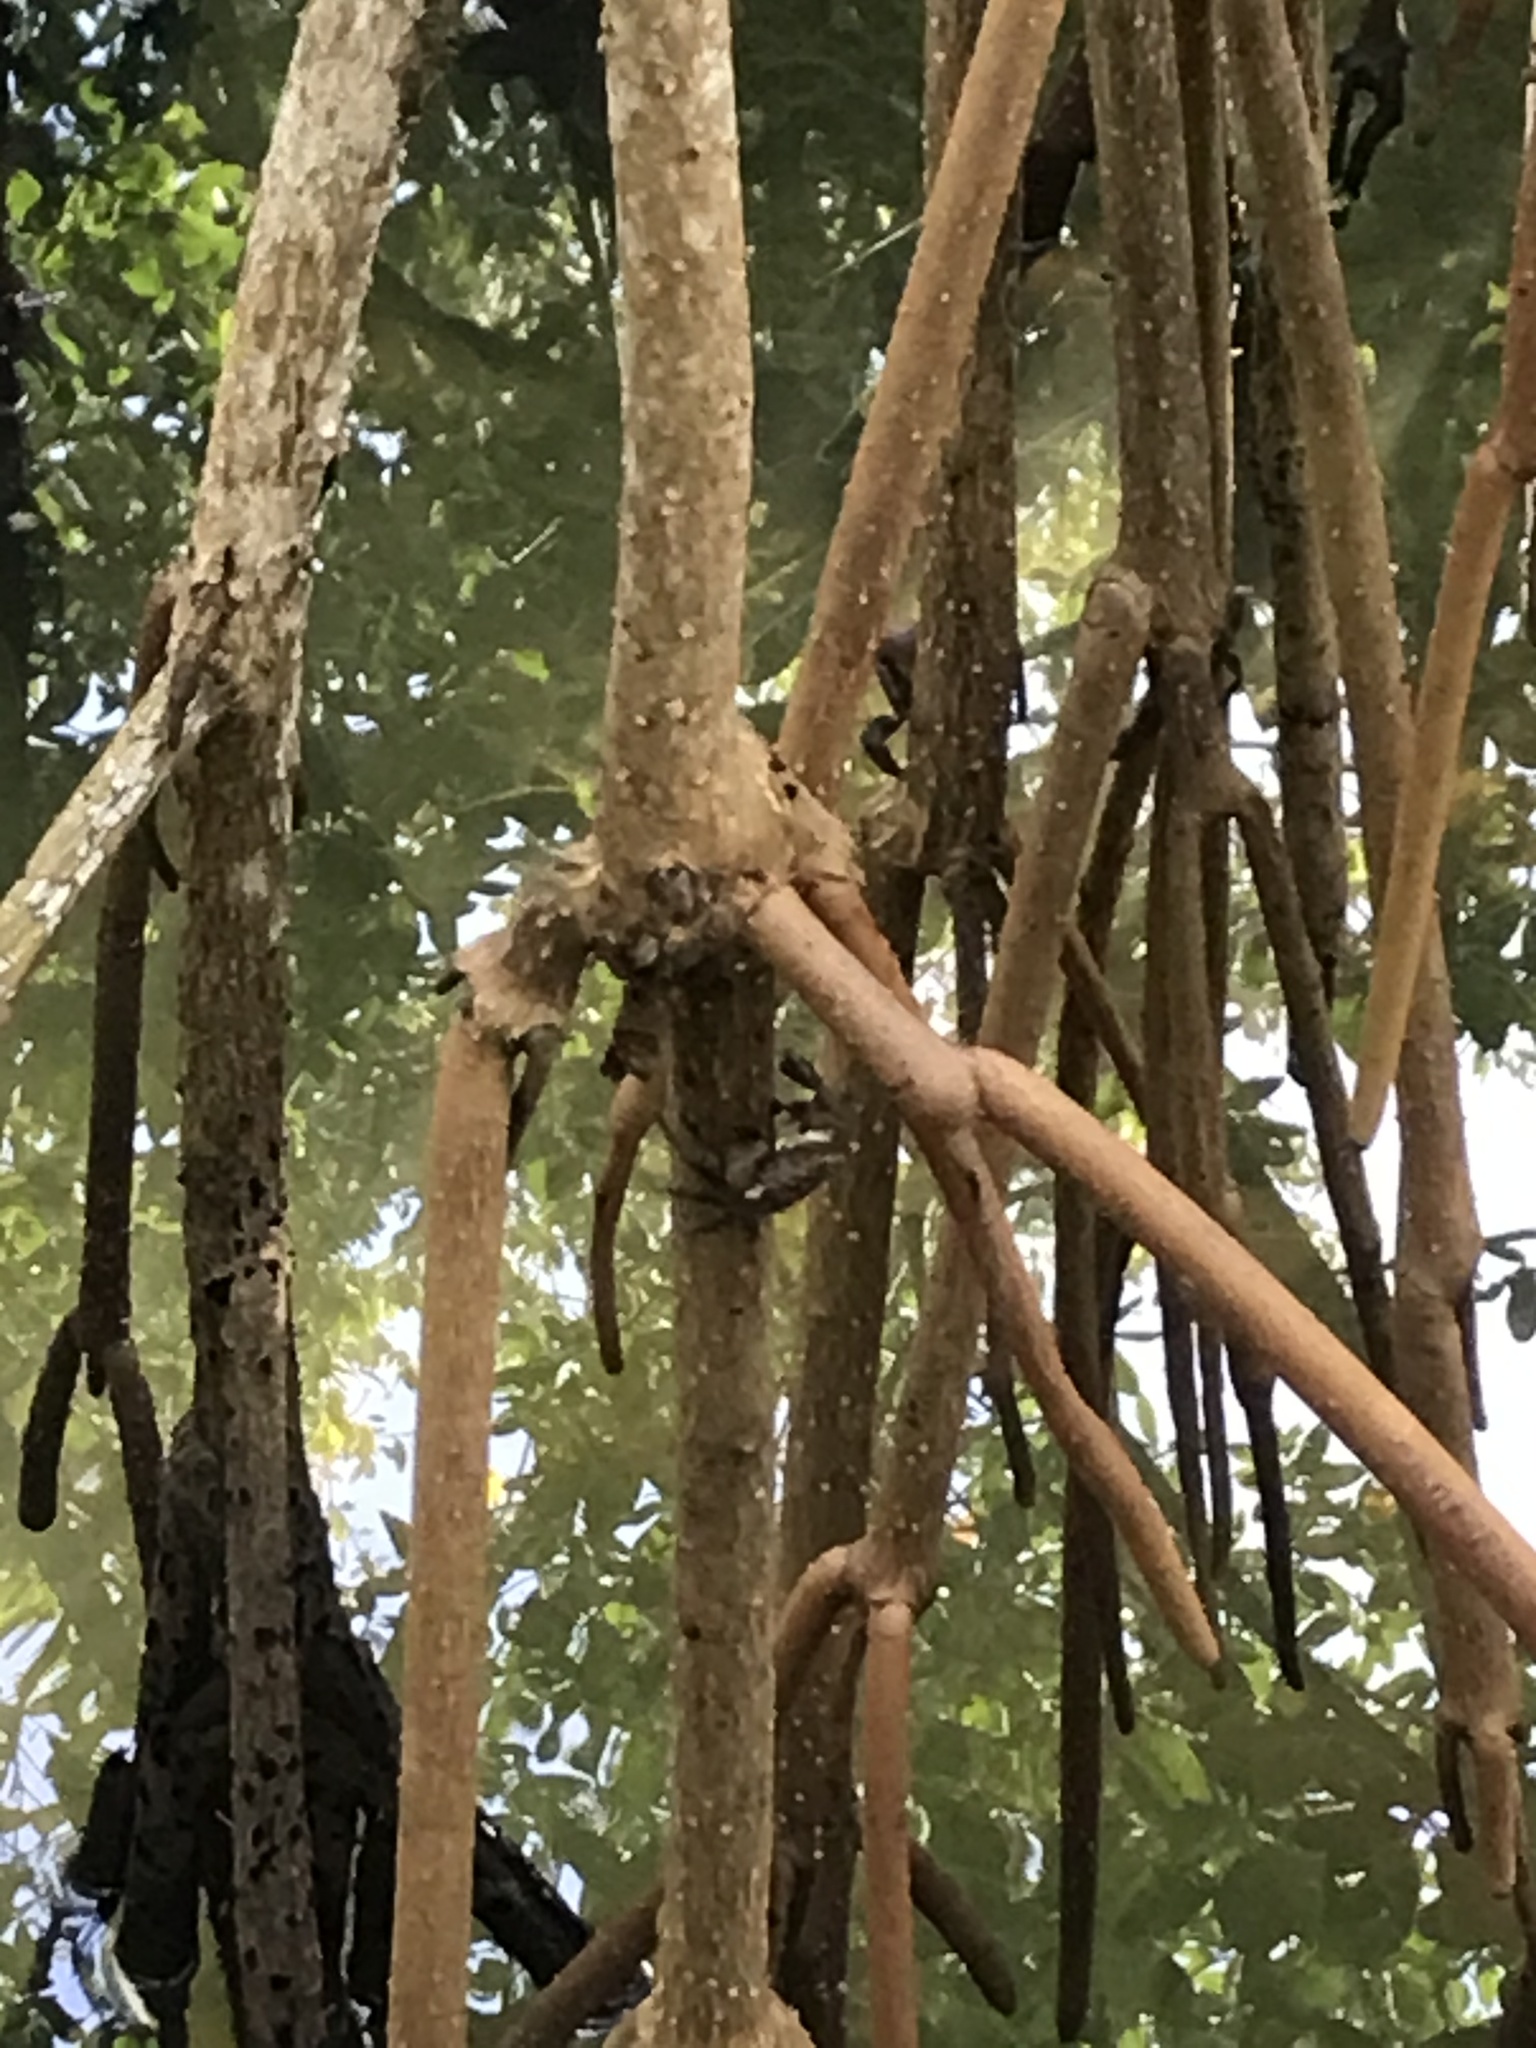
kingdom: Plantae
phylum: Tracheophyta
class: Magnoliopsida
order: Malpighiales
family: Rhizophoraceae
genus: Rhizophora
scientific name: Rhizophora mangle
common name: Red mangrove
